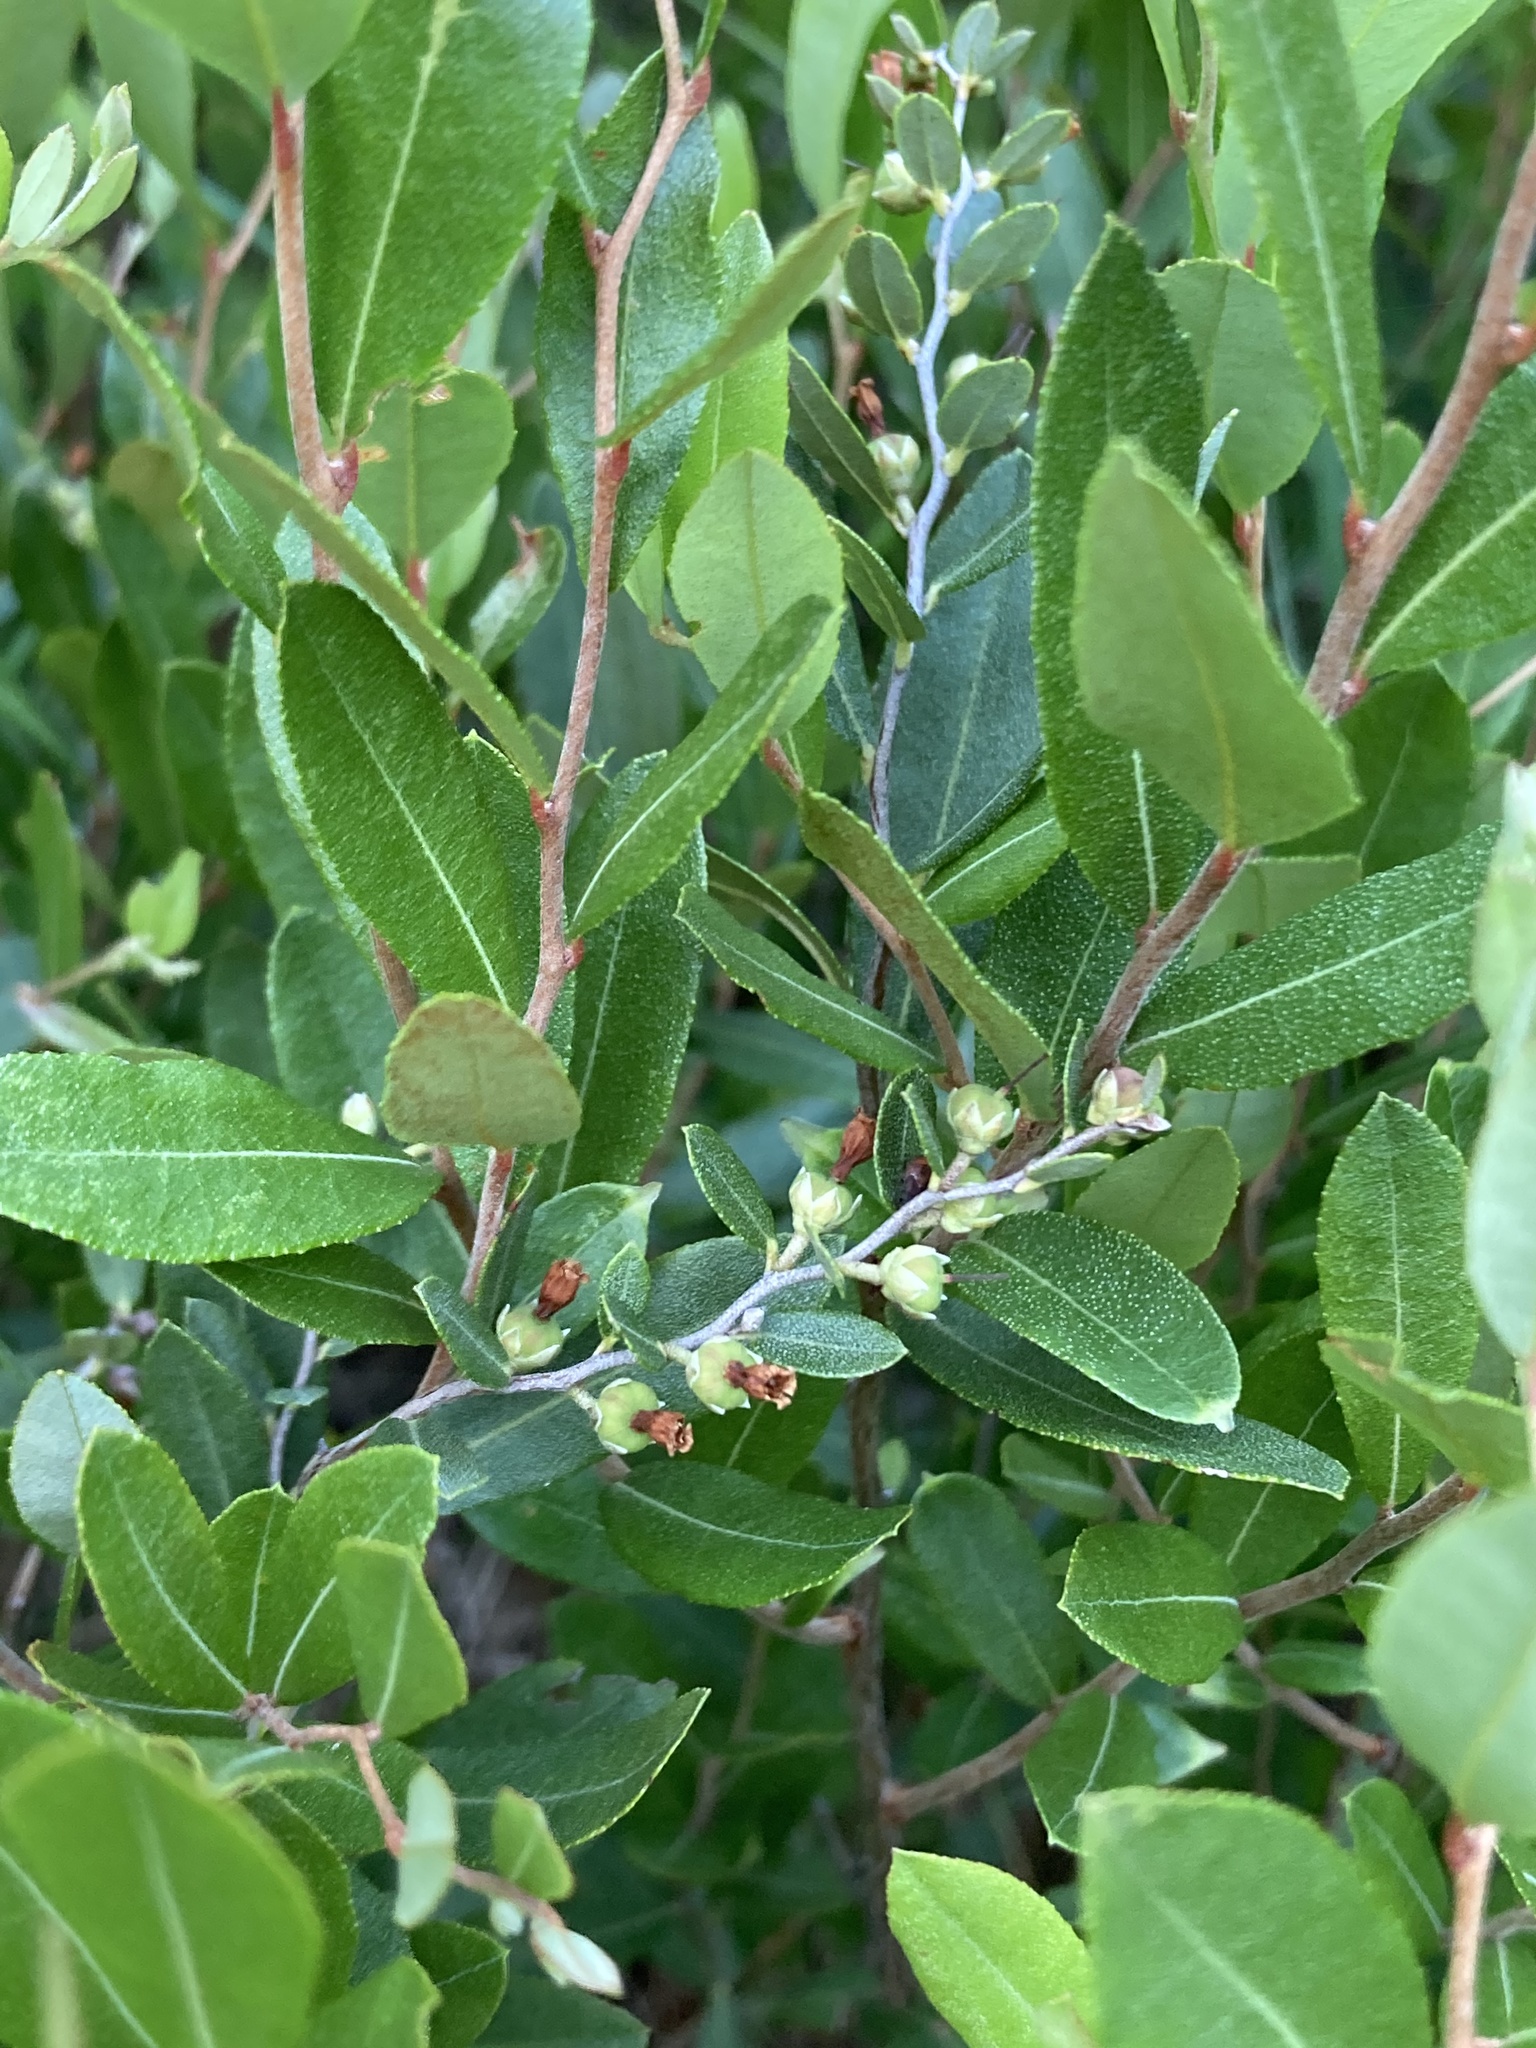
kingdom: Plantae
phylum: Tracheophyta
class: Magnoliopsida
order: Ericales
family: Ericaceae
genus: Chamaedaphne
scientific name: Chamaedaphne calyculata
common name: Leatherleaf
